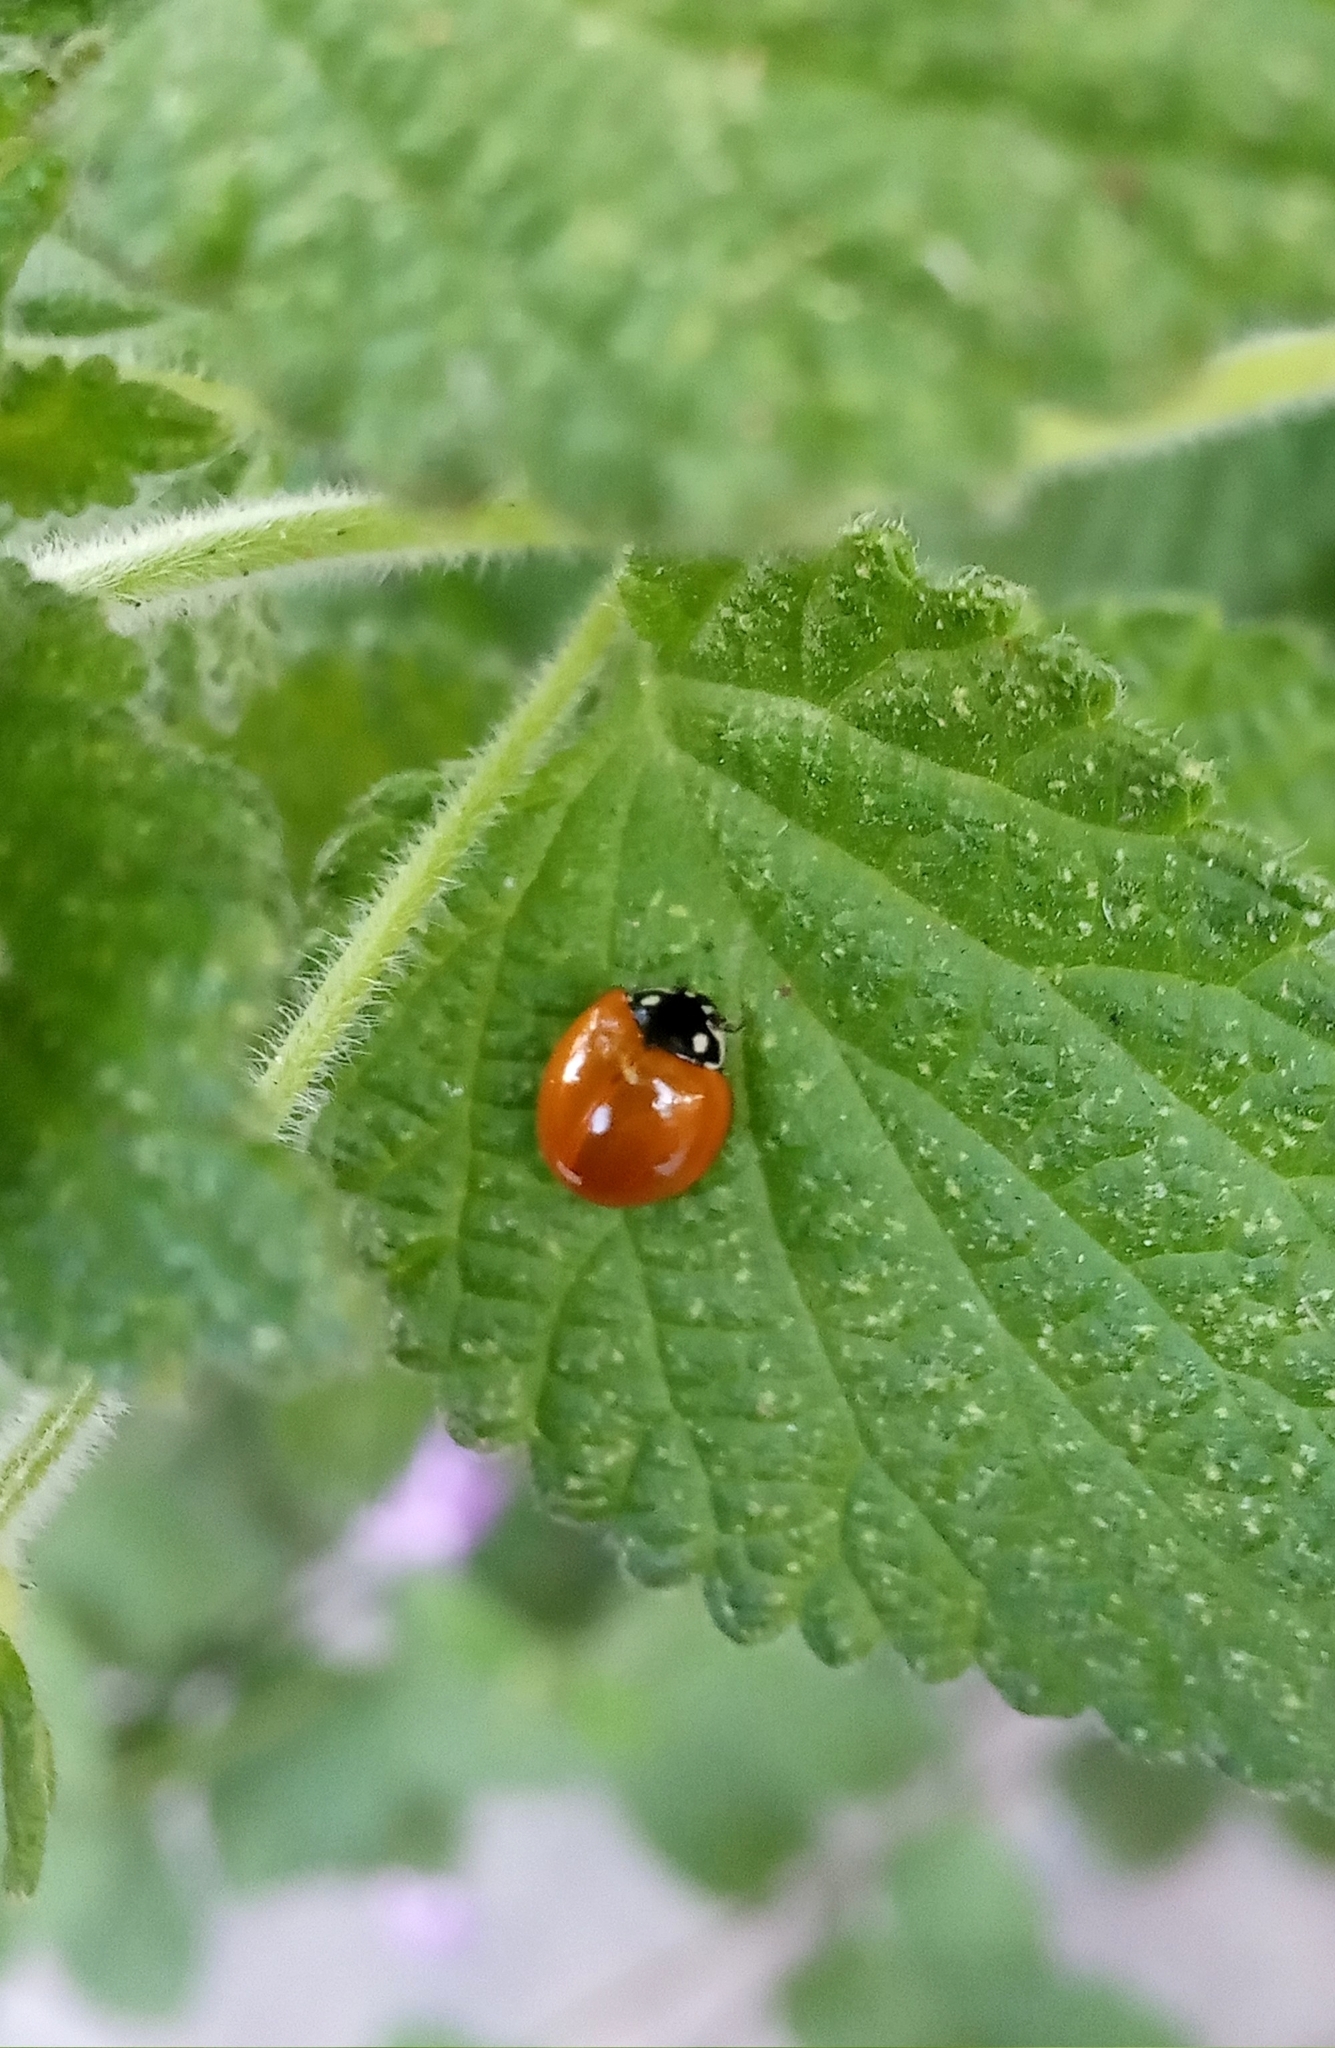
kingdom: Animalia
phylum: Arthropoda
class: Insecta
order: Coleoptera
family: Coccinellidae
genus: Cycloneda
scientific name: Cycloneda sanguinea
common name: Ladybird beetle
